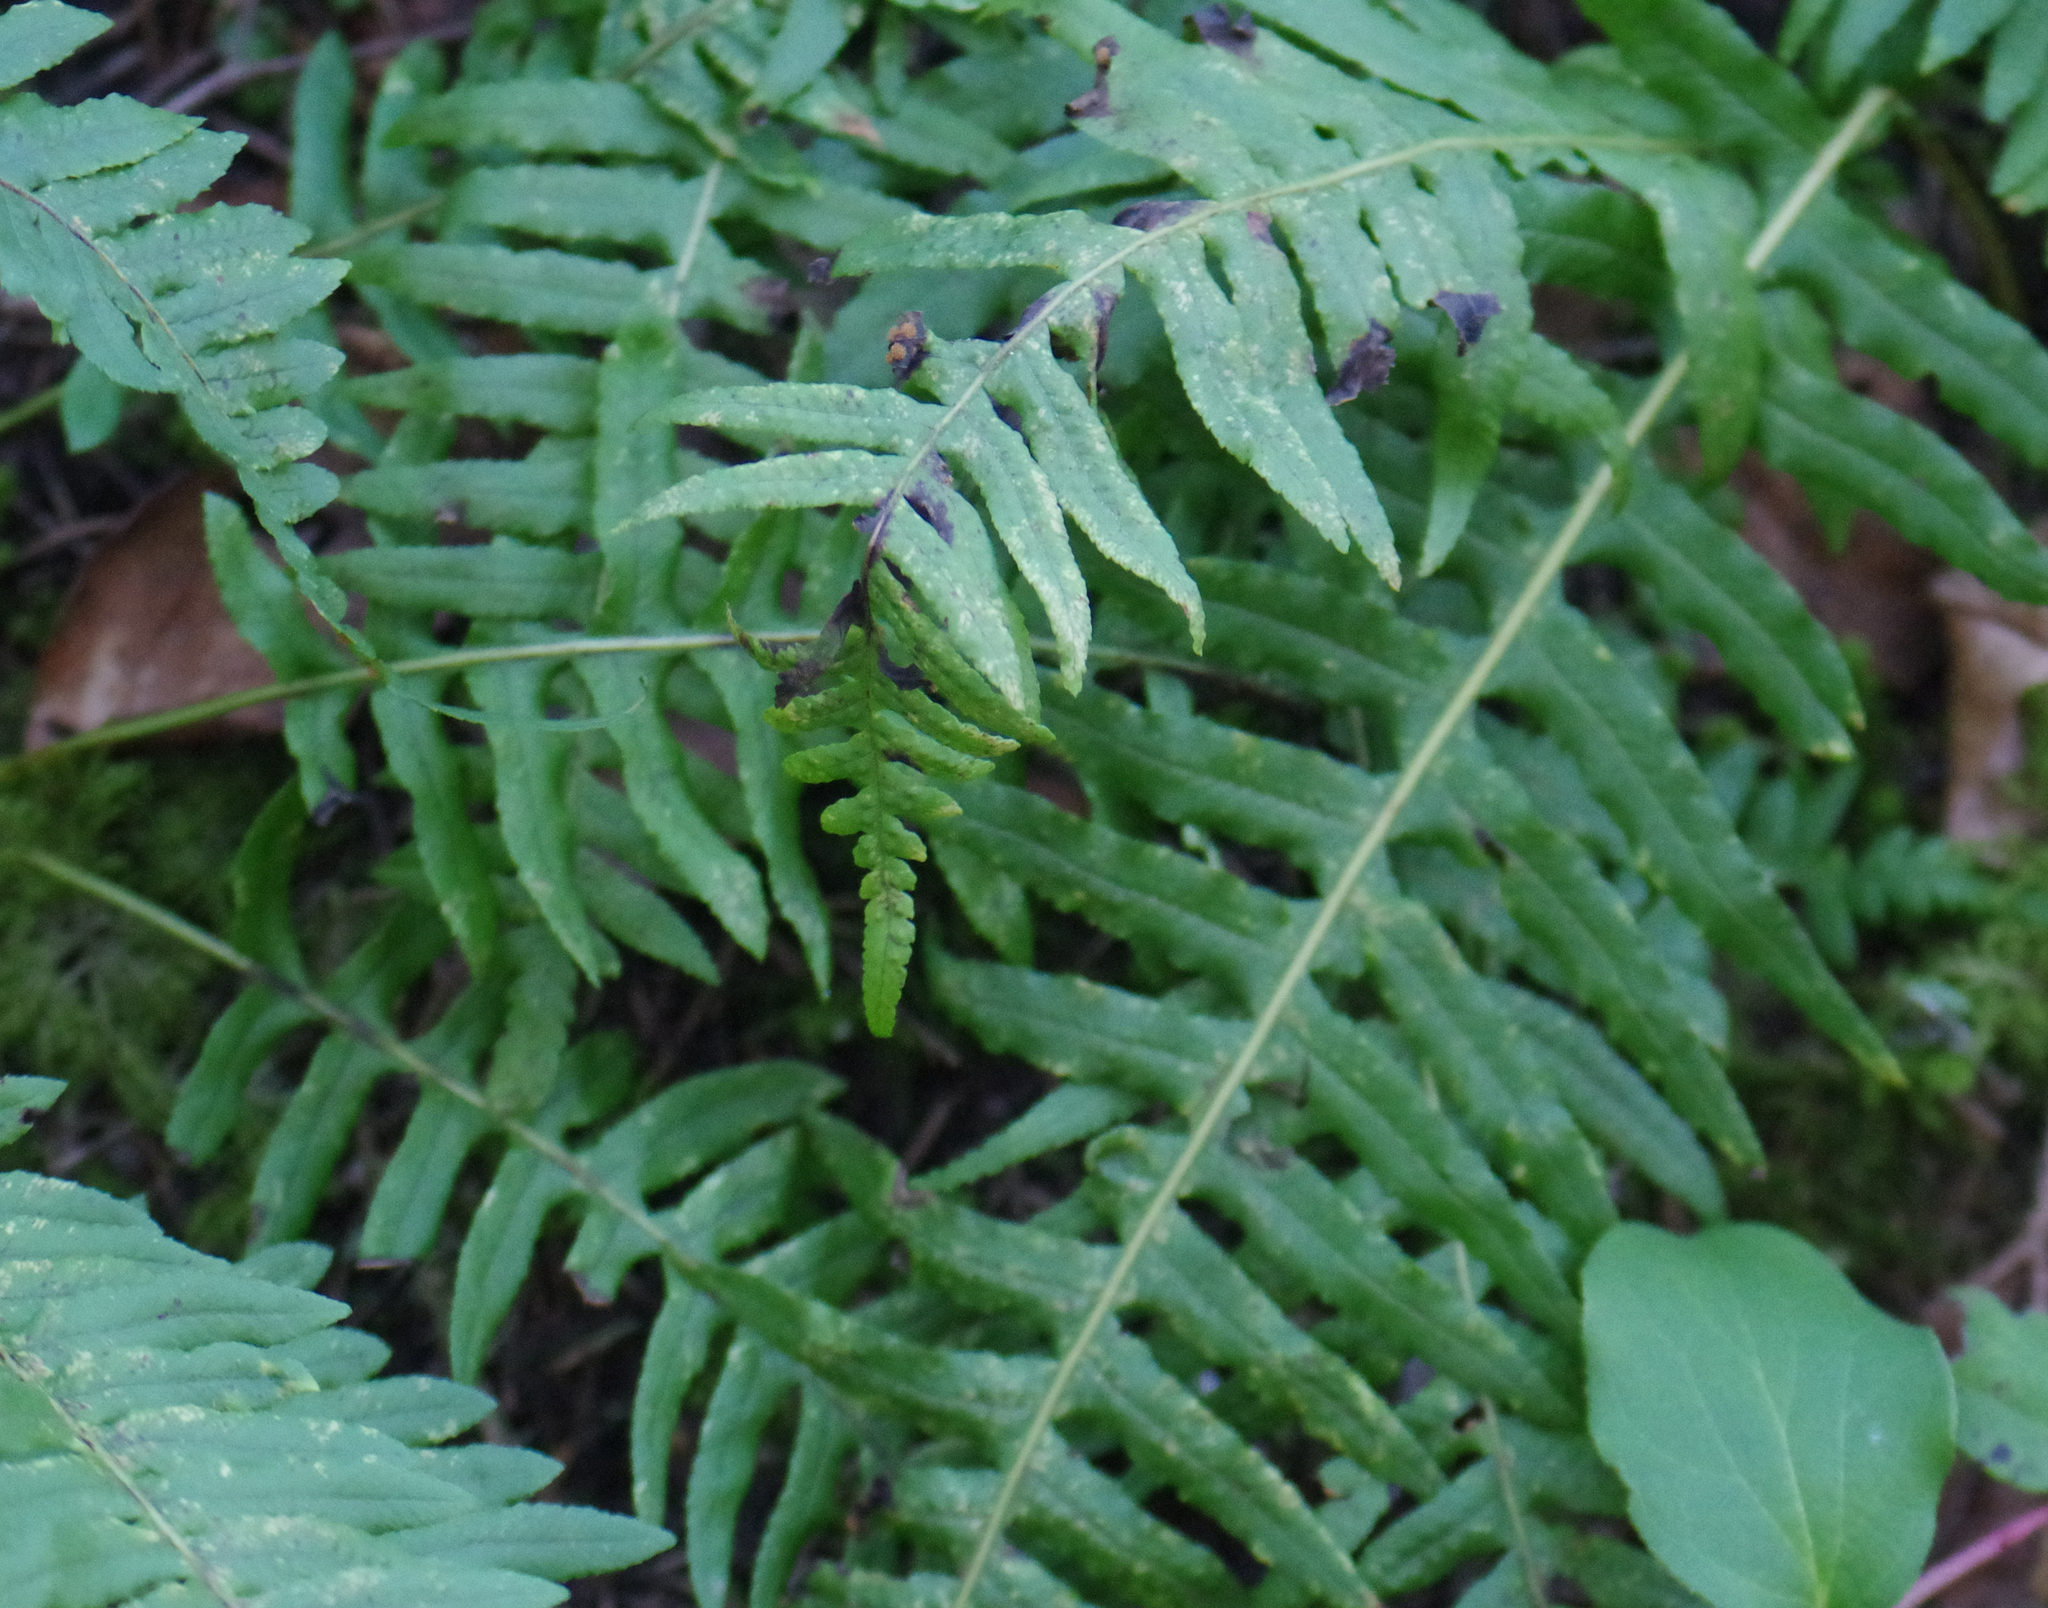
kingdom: Plantae
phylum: Tracheophyta
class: Polypodiopsida
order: Polypodiales
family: Polypodiaceae
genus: Polypodium
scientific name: Polypodium glycyrrhiza
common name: Licorice fern
